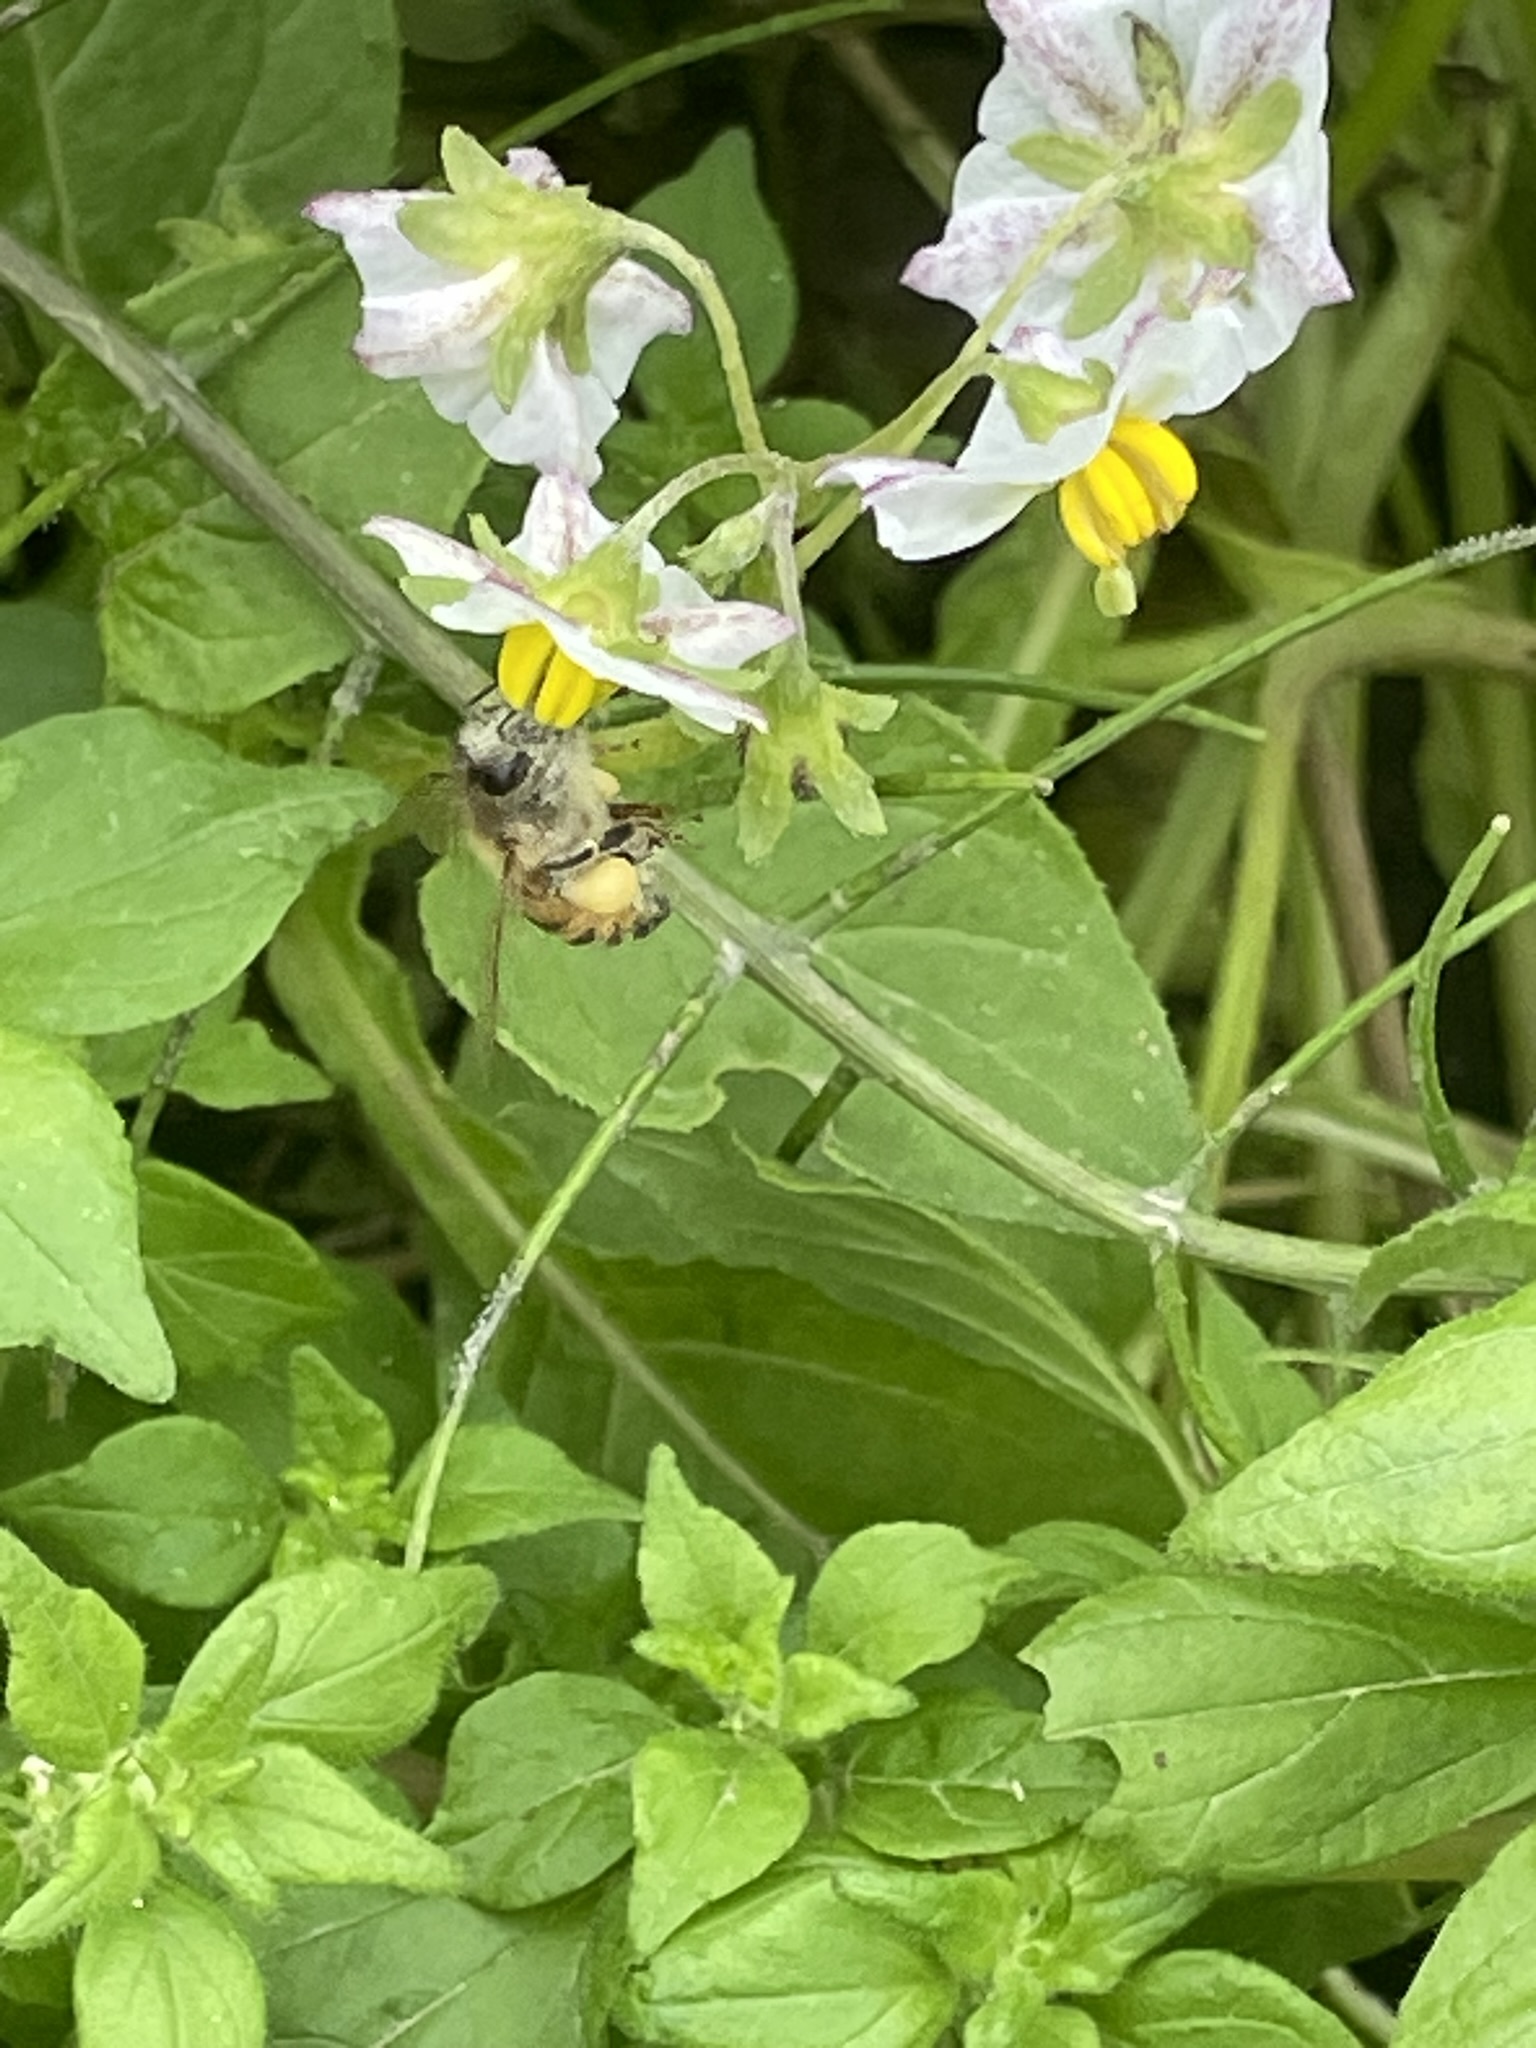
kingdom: Animalia
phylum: Arthropoda
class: Insecta
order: Hymenoptera
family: Apidae
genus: Apis
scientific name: Apis mellifera
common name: Honey bee
